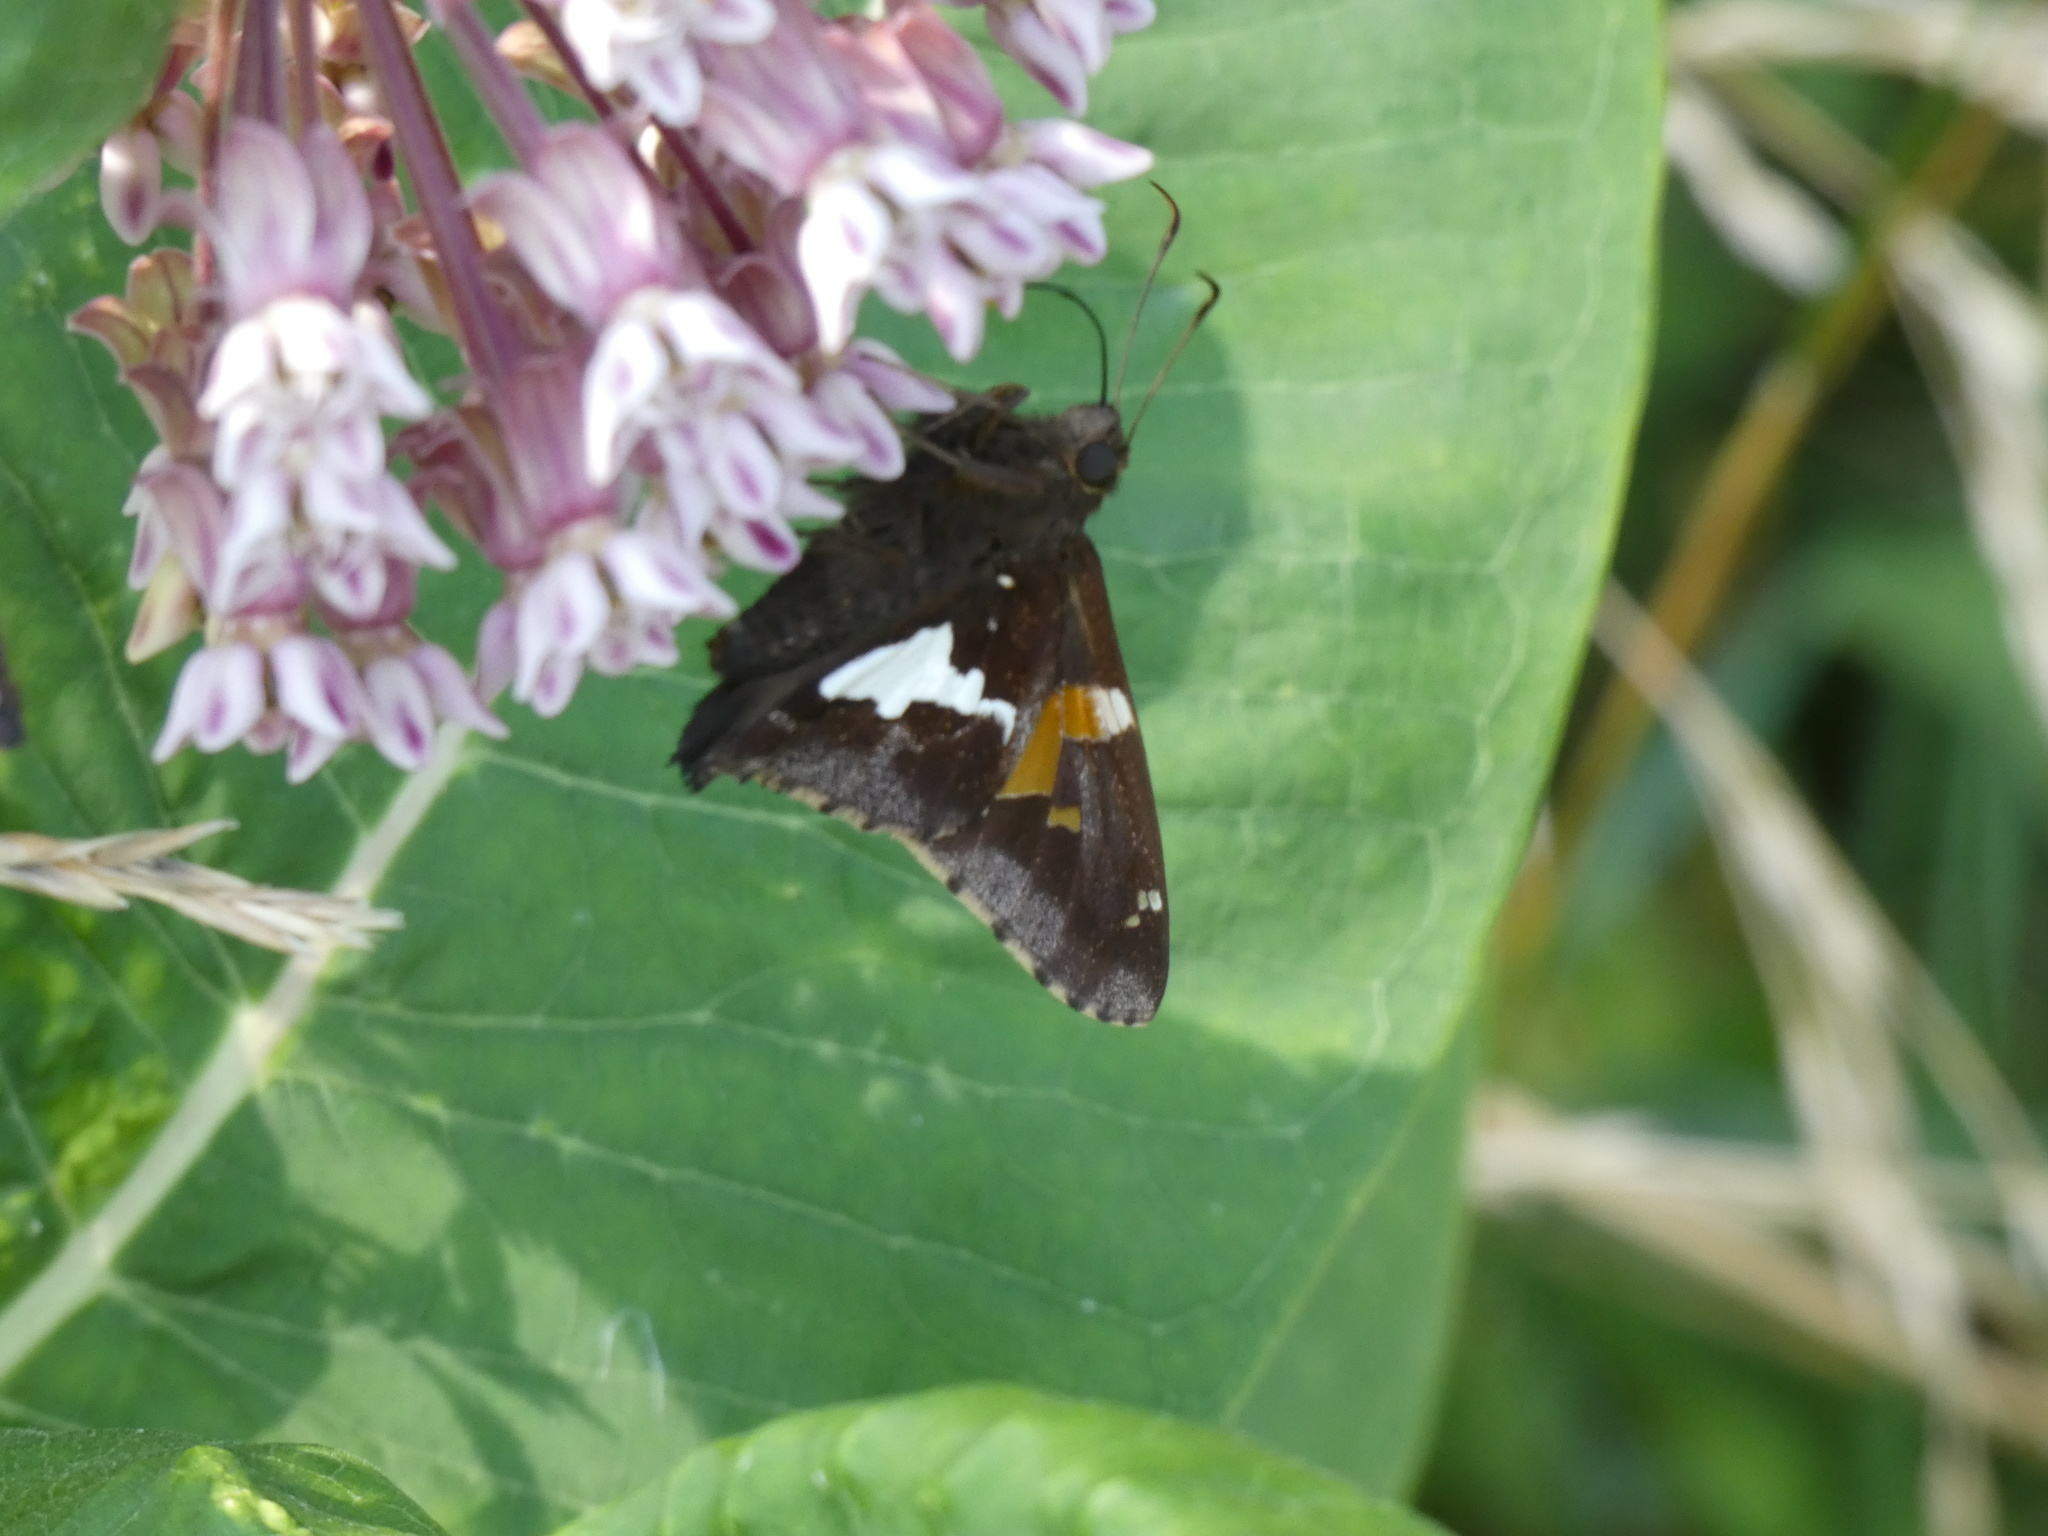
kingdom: Animalia
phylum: Arthropoda
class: Insecta
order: Lepidoptera
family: Hesperiidae
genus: Epargyreus
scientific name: Epargyreus clarus
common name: Silver-spotted skipper
